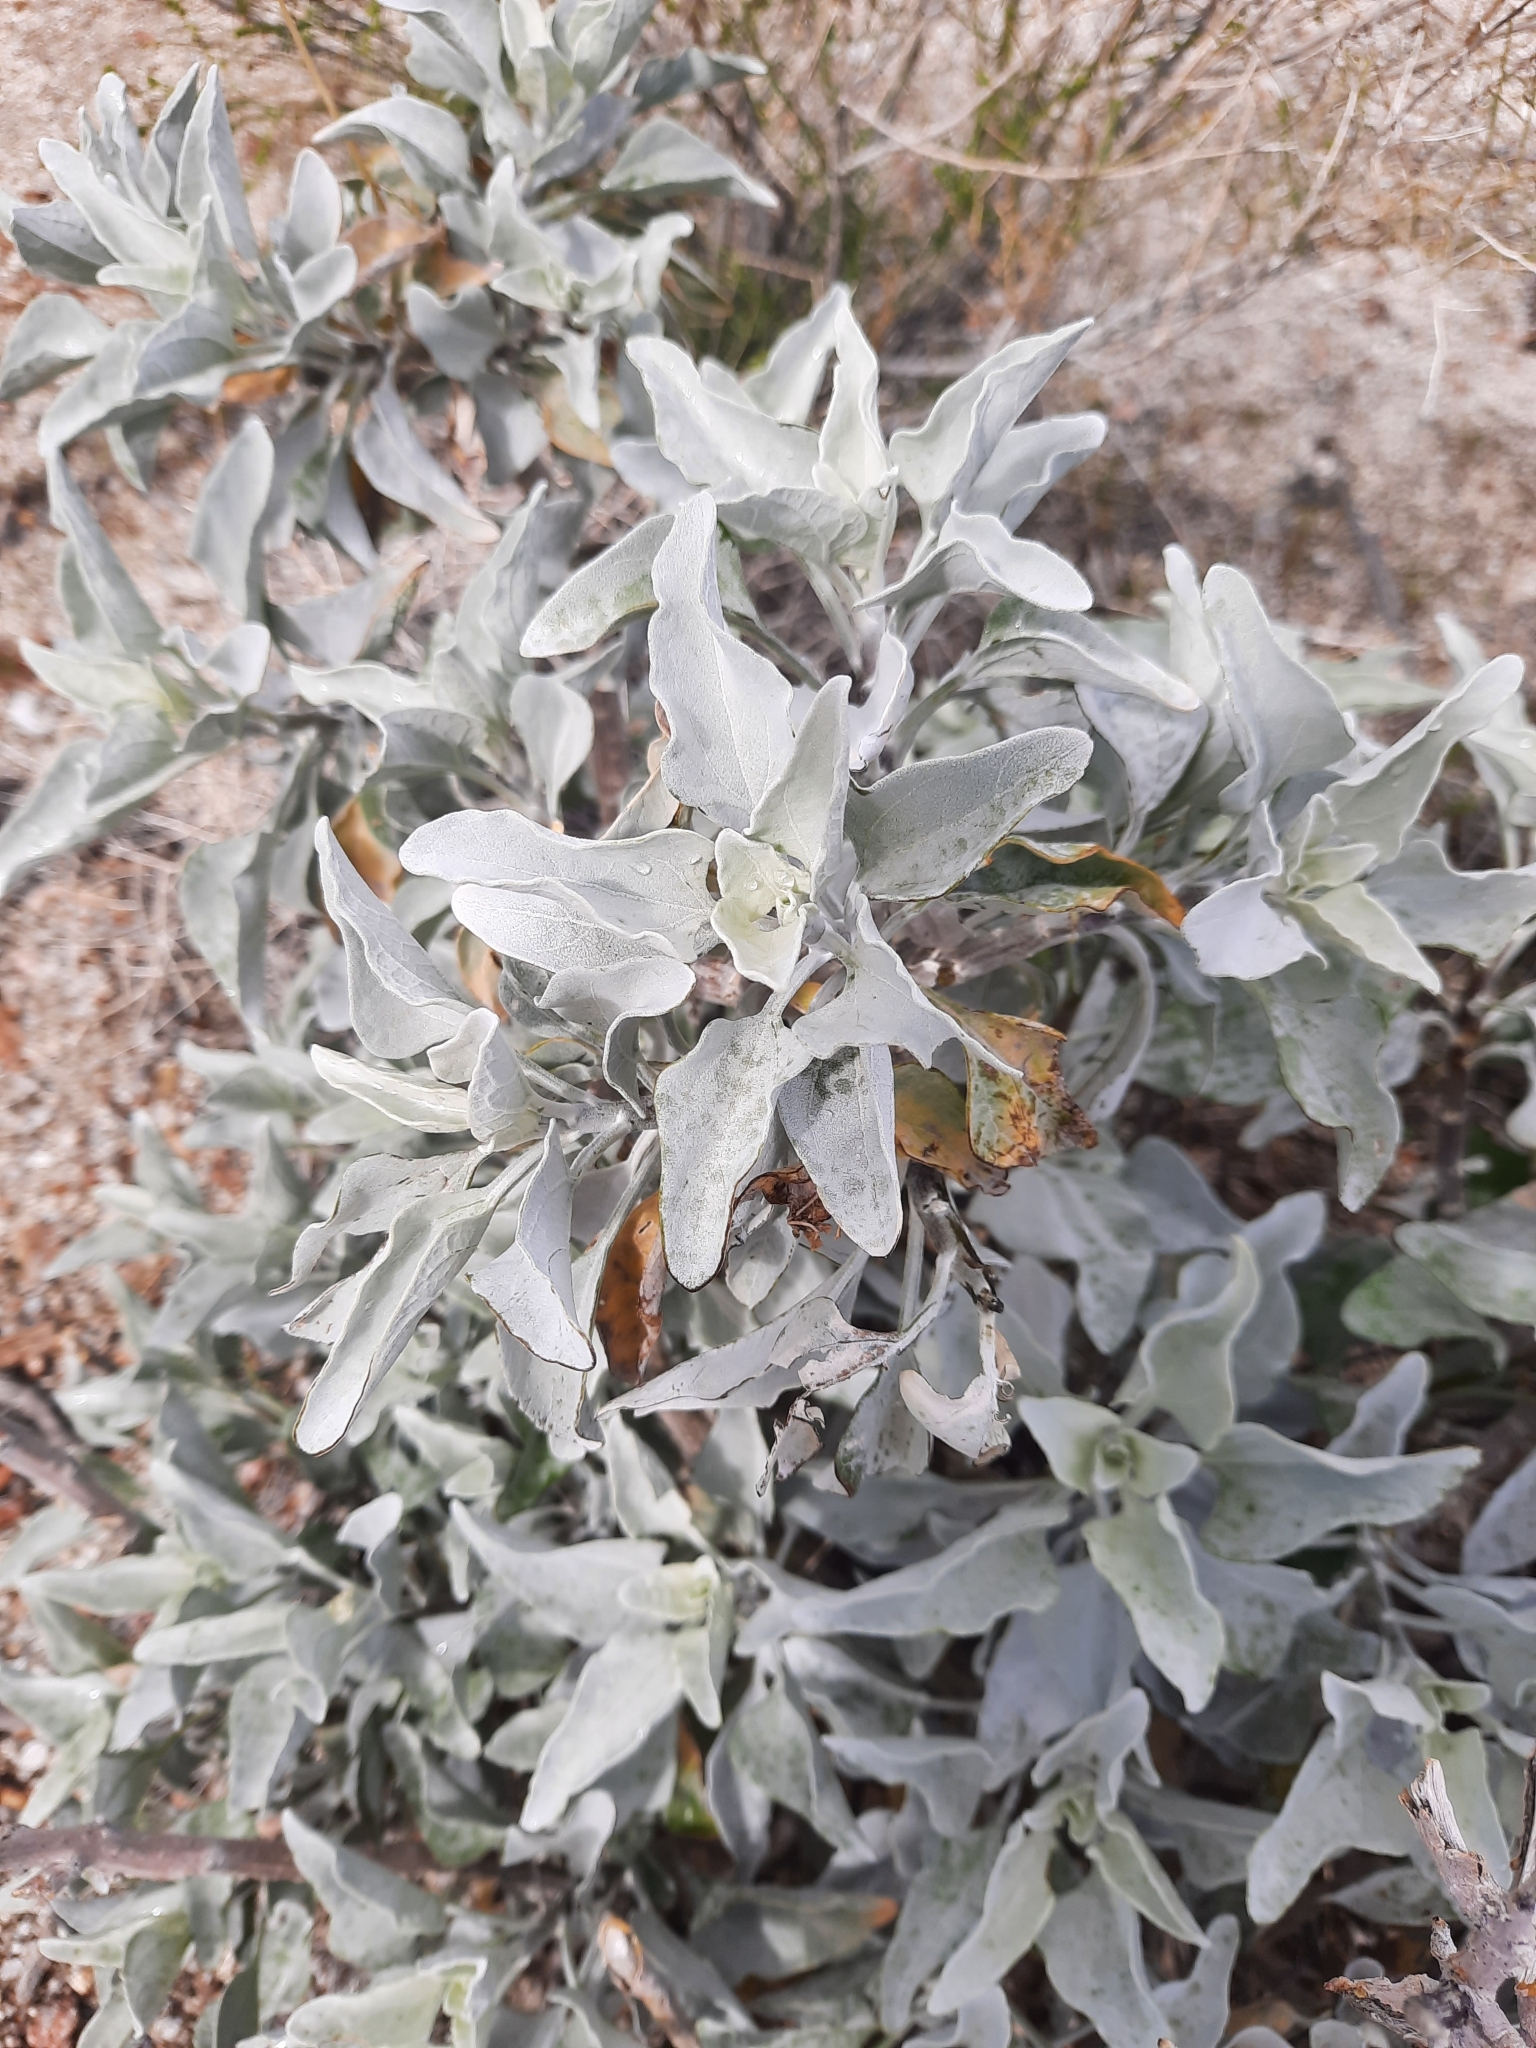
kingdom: Plantae
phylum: Tracheophyta
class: Magnoliopsida
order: Asterales
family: Asteraceae
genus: Encelia
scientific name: Encelia farinosa
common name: Brittlebush
